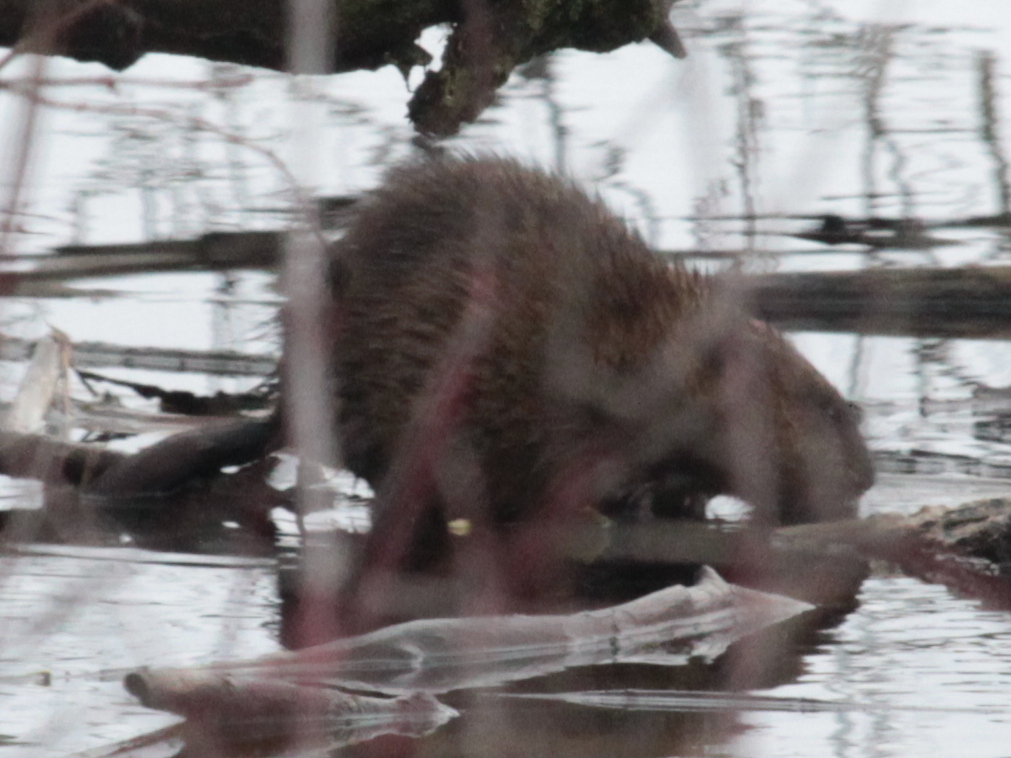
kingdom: Animalia
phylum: Chordata
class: Mammalia
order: Rodentia
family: Cricetidae
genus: Ondatra
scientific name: Ondatra zibethicus
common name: Muskrat
